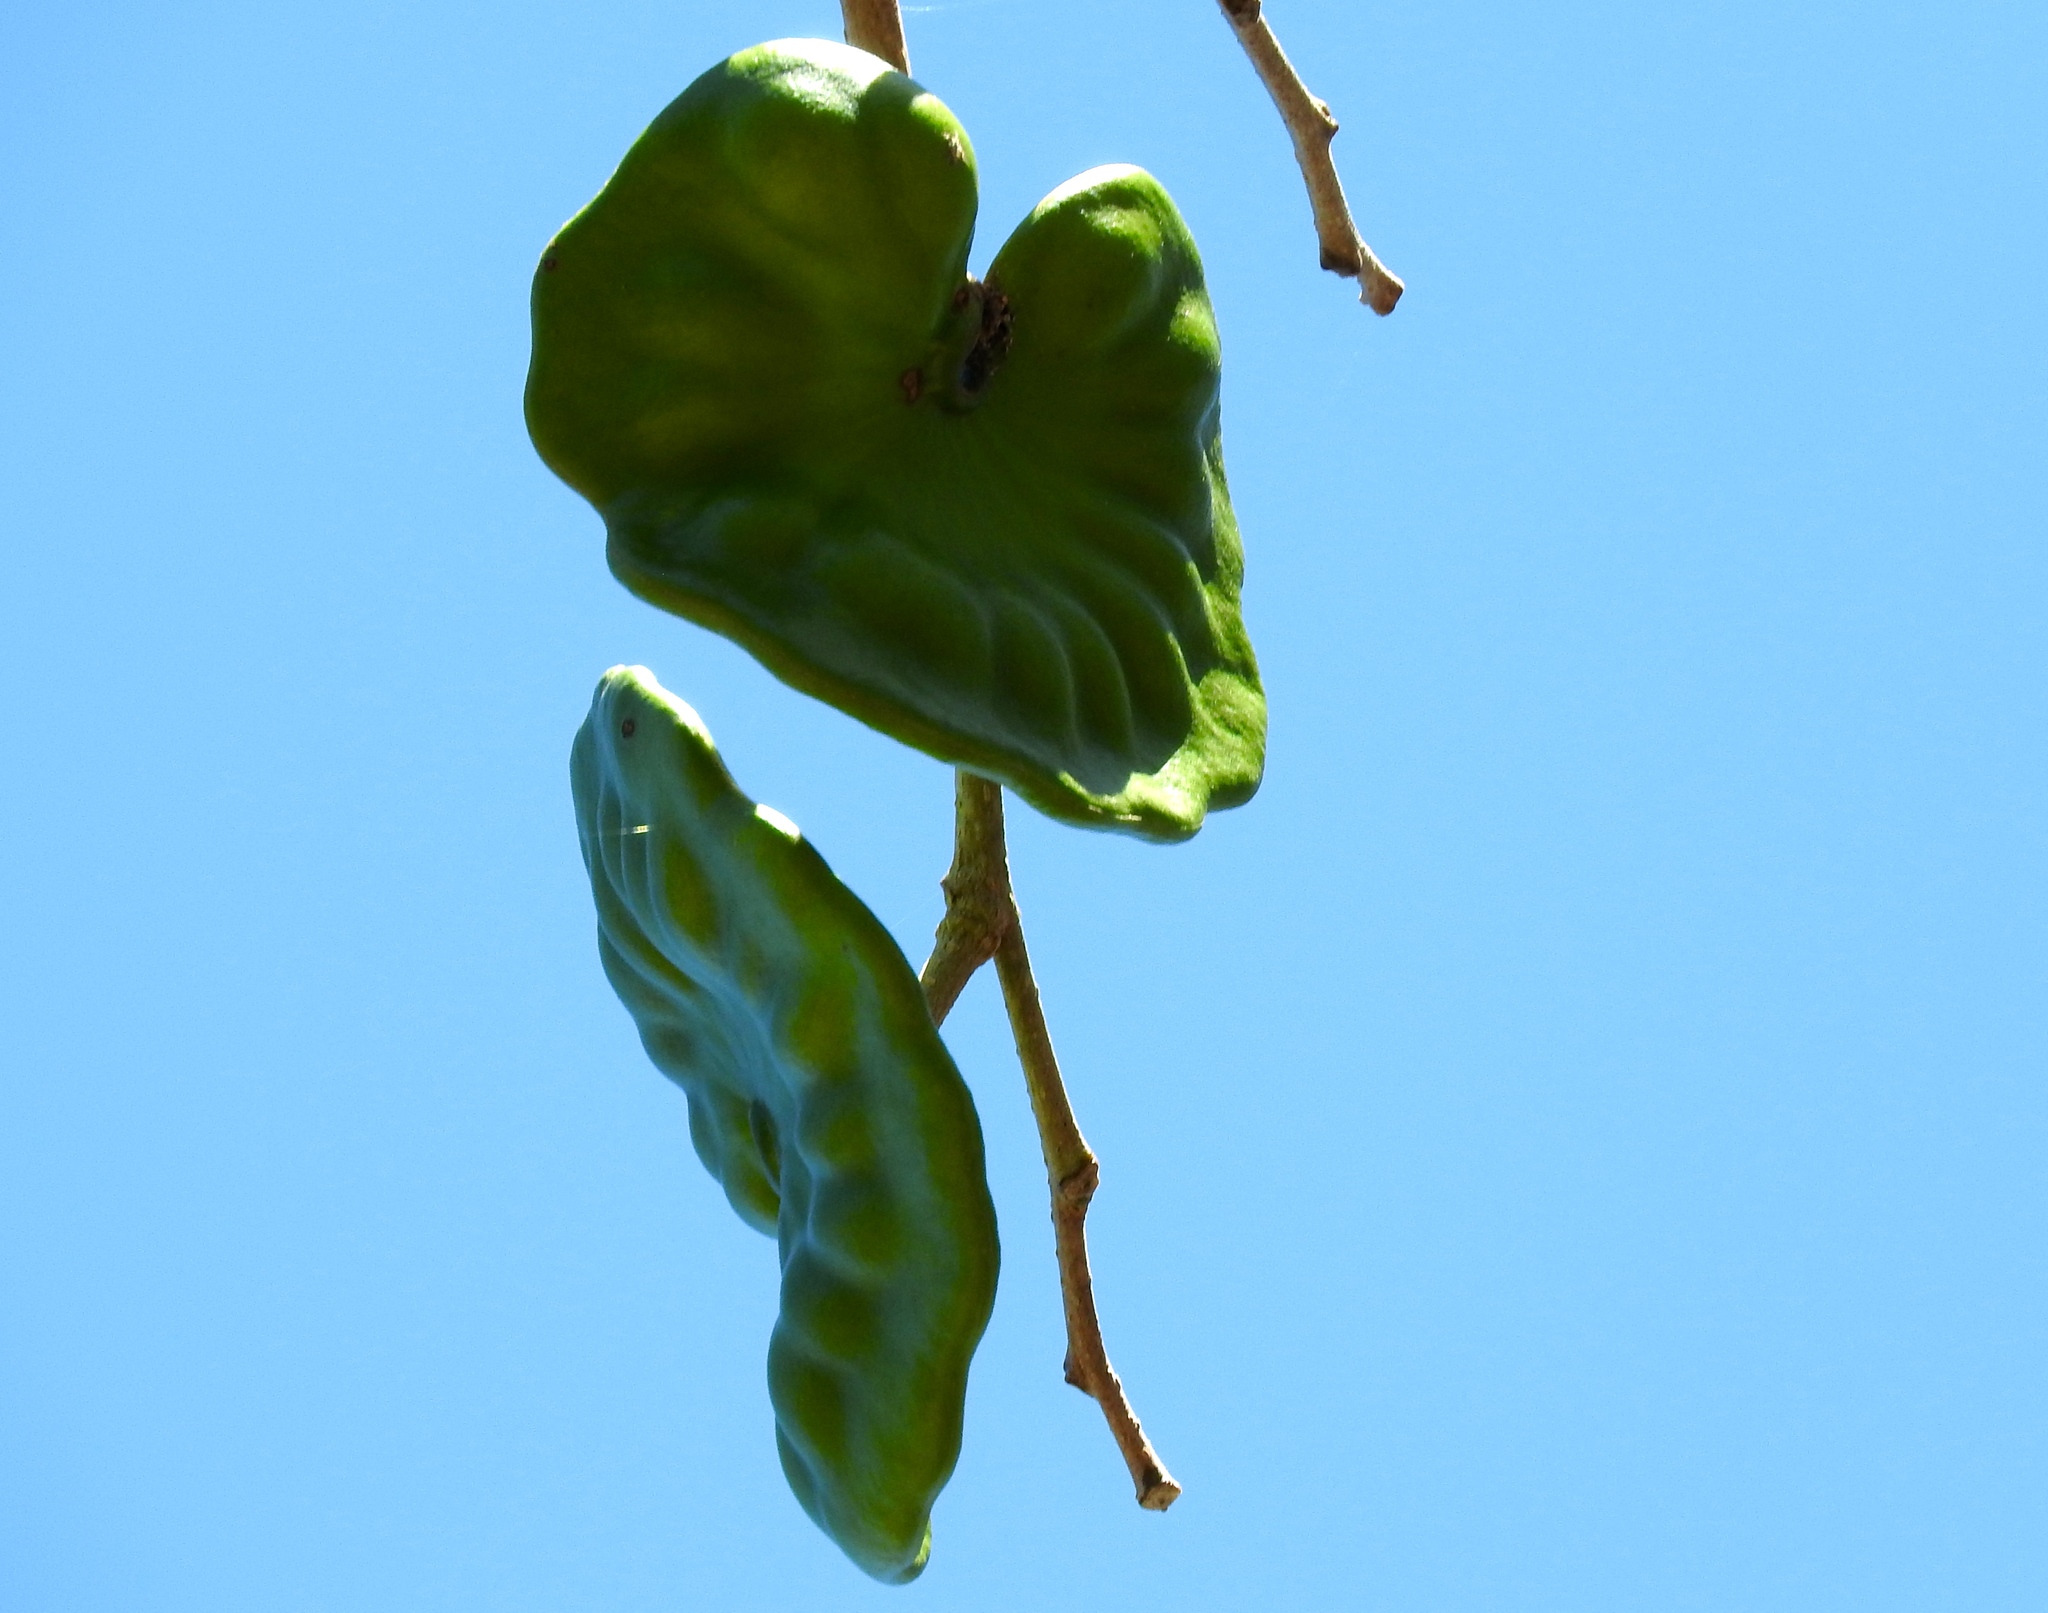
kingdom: Plantae
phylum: Tracheophyta
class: Magnoliopsida
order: Fabales
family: Fabaceae
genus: Enterolobium
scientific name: Enterolobium cyclocarpum
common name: Ear tree
